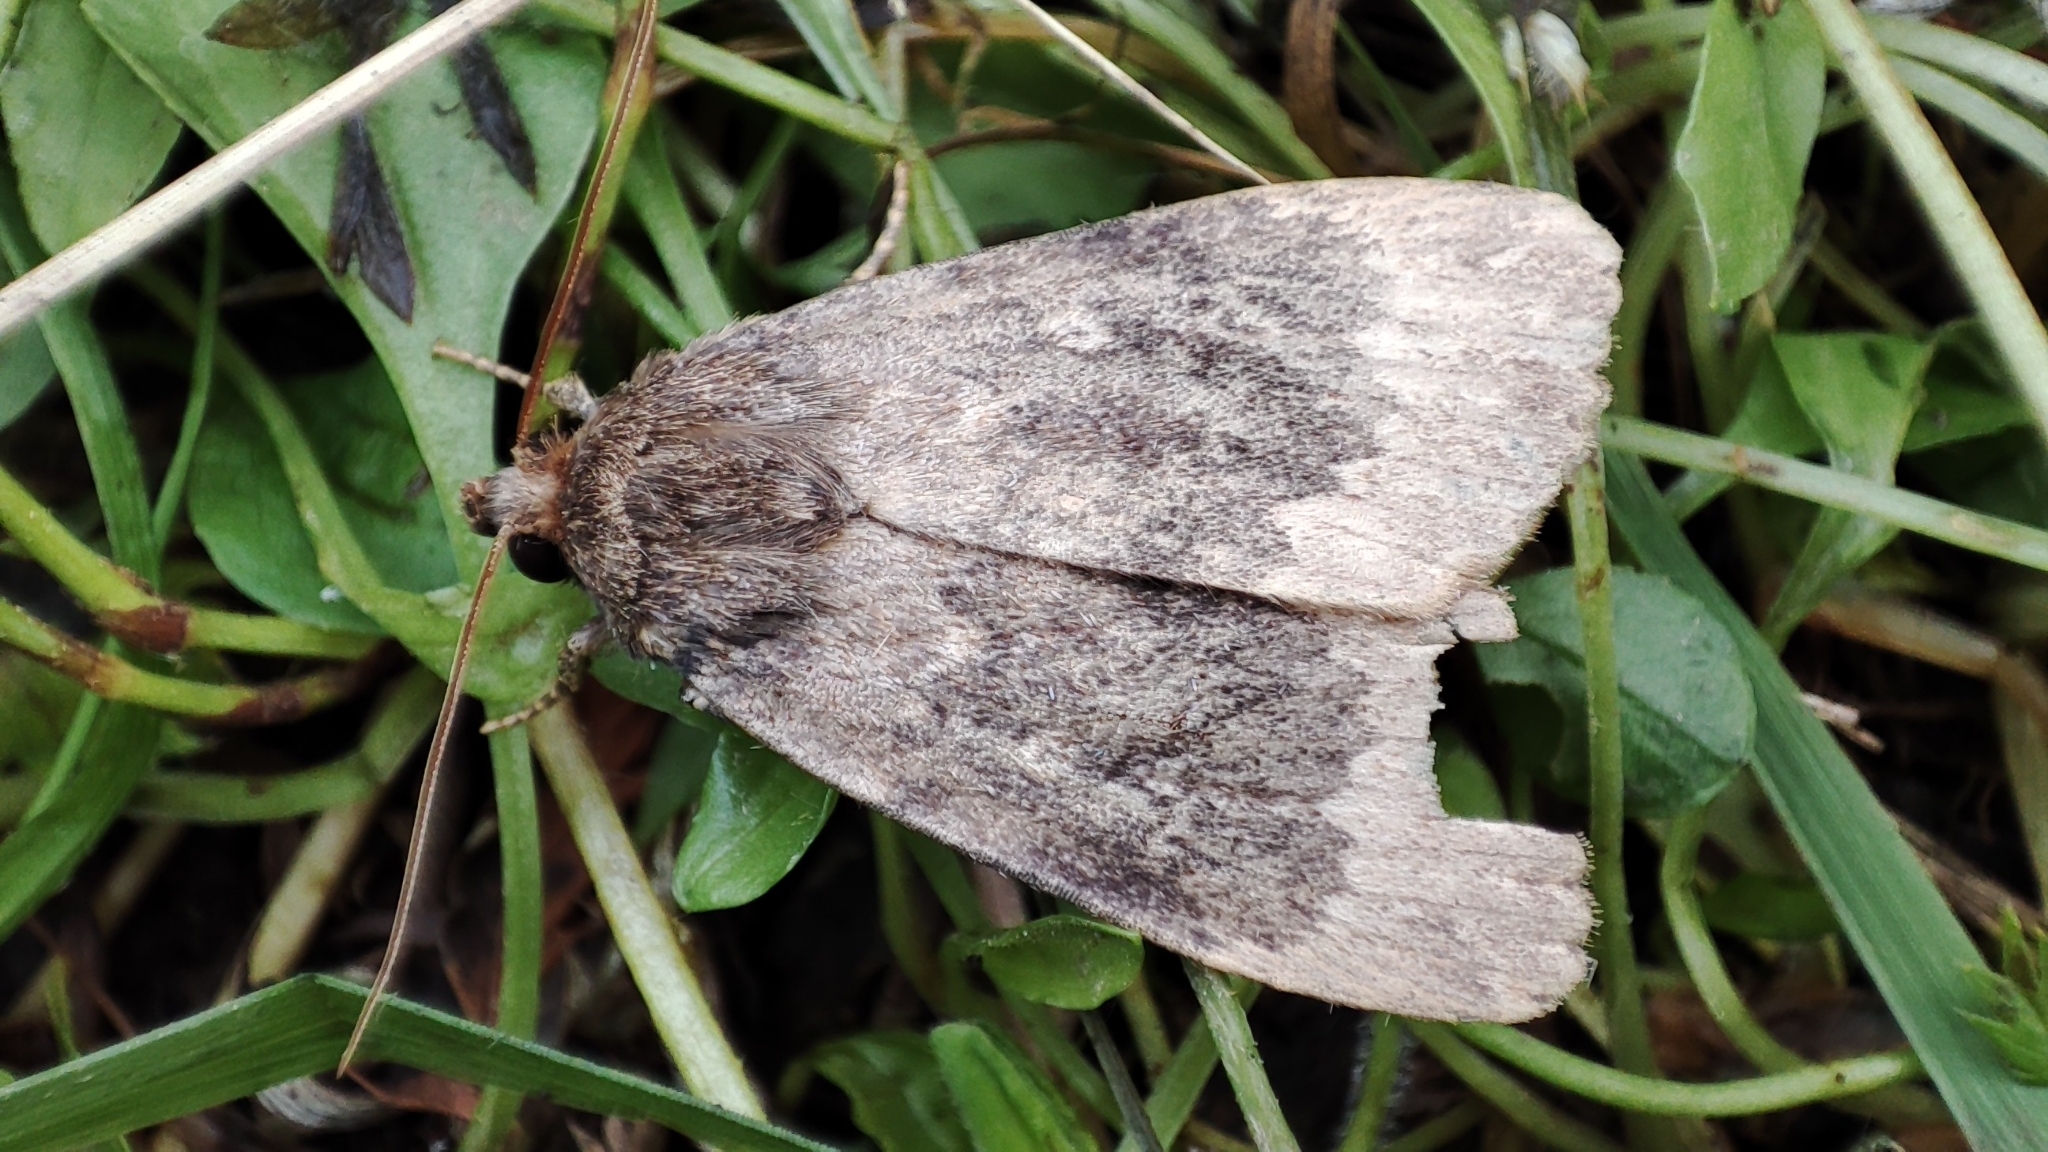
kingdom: Animalia
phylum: Arthropoda
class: Insecta
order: Lepidoptera
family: Noctuidae
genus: Amphipyra
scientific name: Amphipyra perflua
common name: Larger pale-tipped black moth
